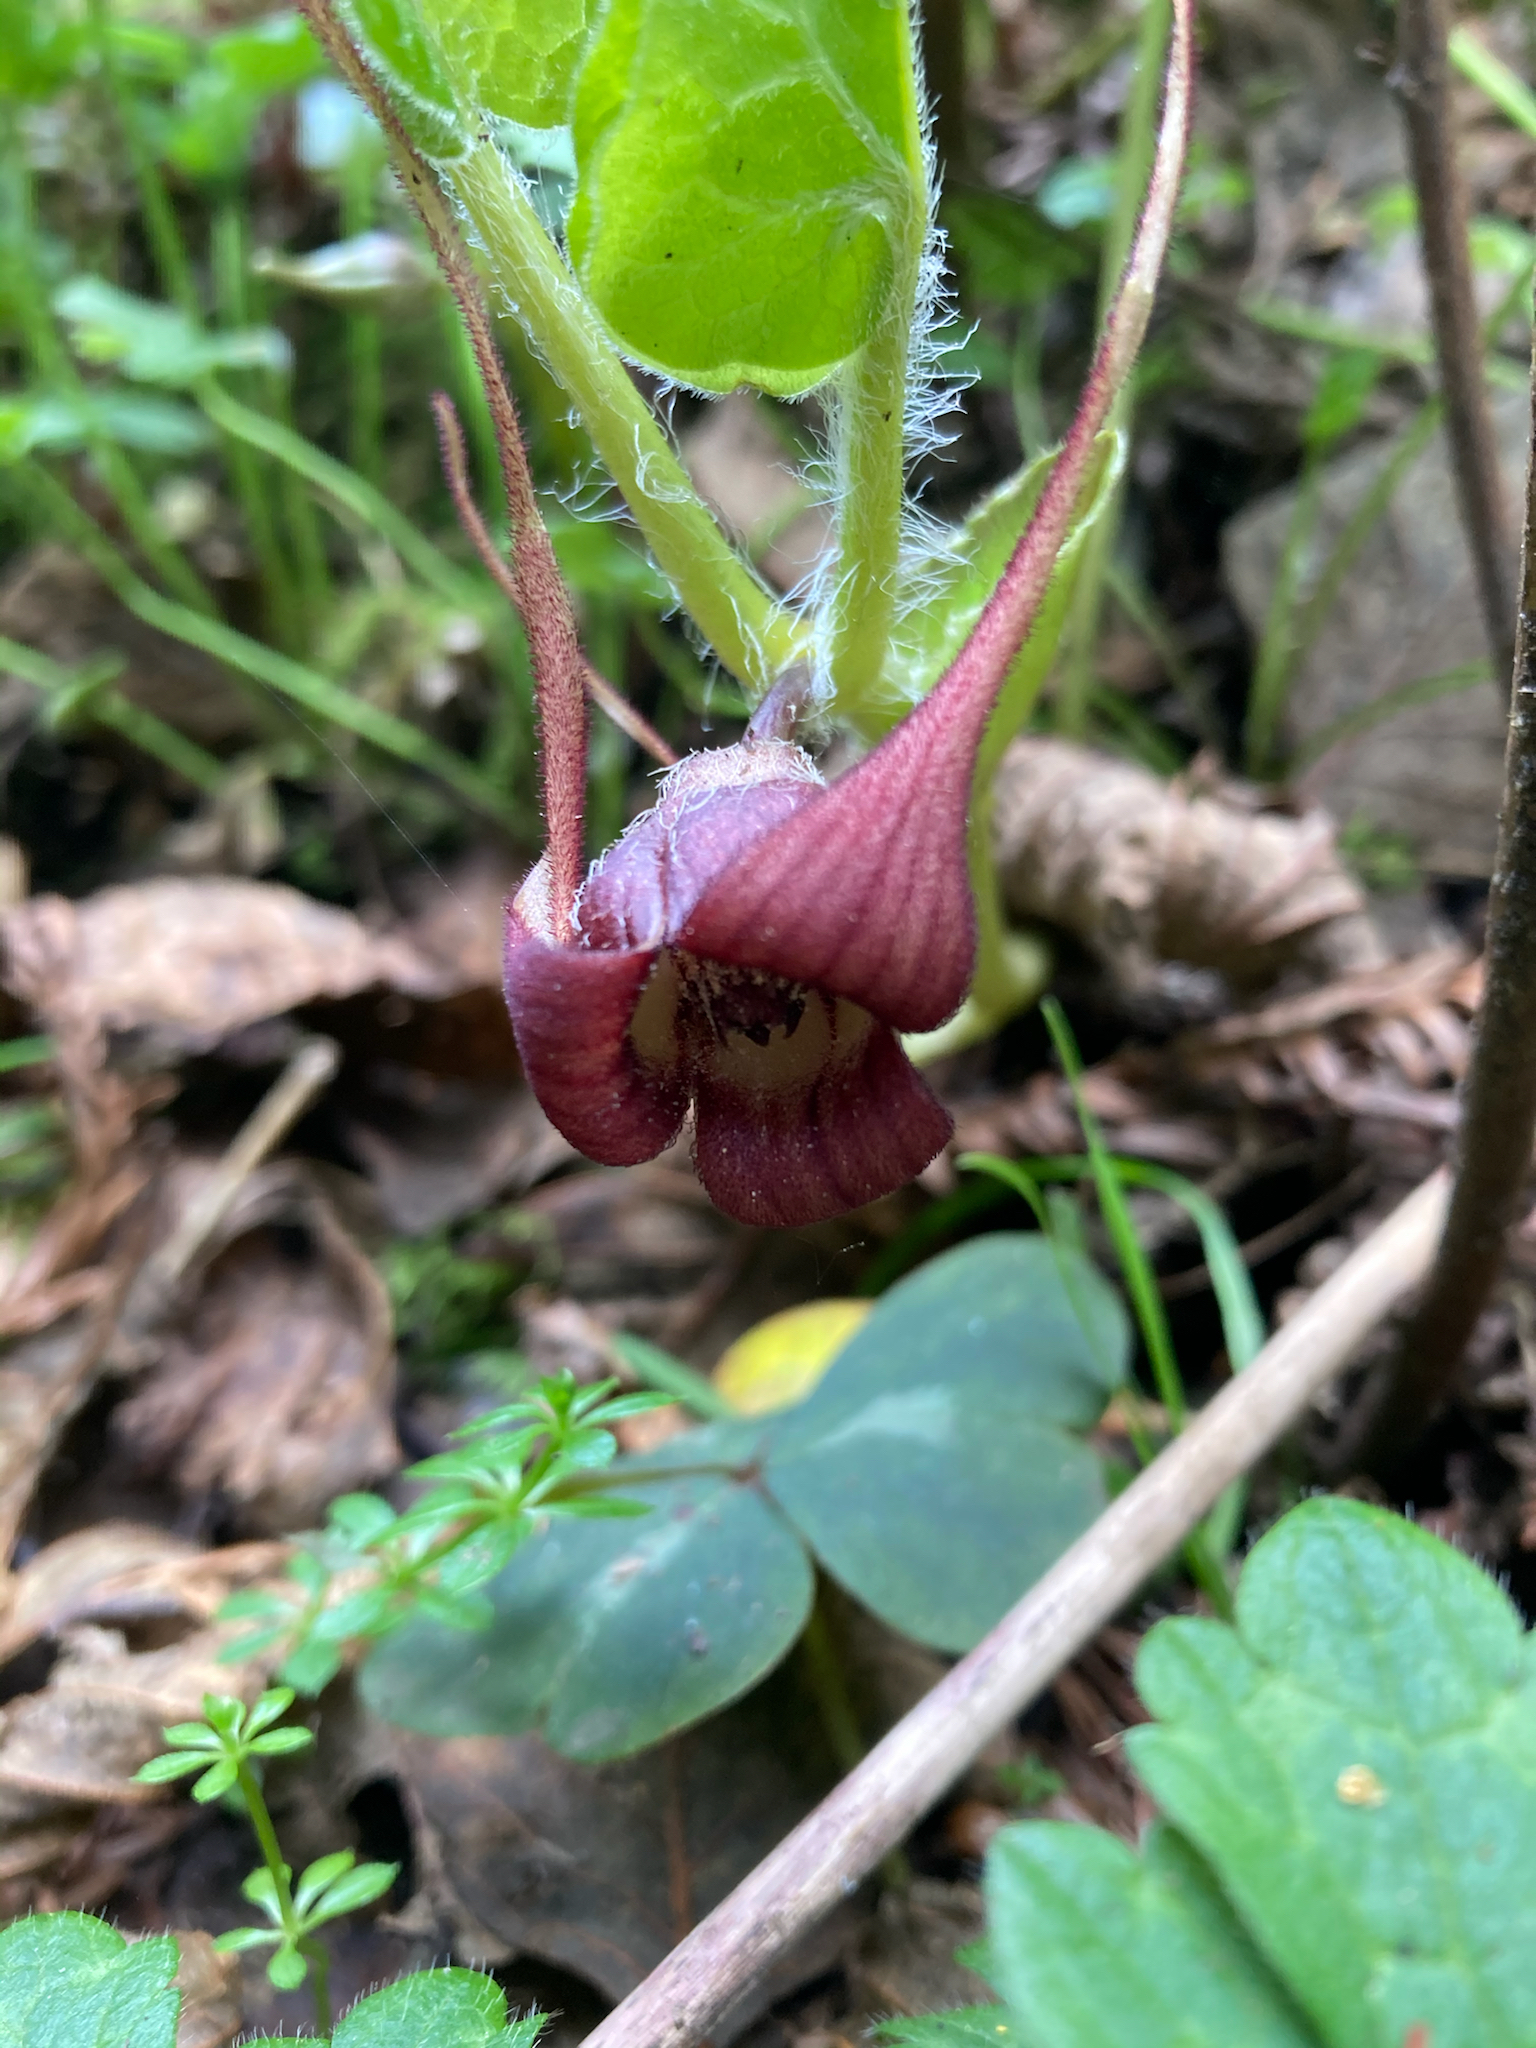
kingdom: Plantae
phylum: Tracheophyta
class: Magnoliopsida
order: Piperales
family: Aristolochiaceae
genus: Asarum
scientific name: Asarum caudatum
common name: Wild ginger
